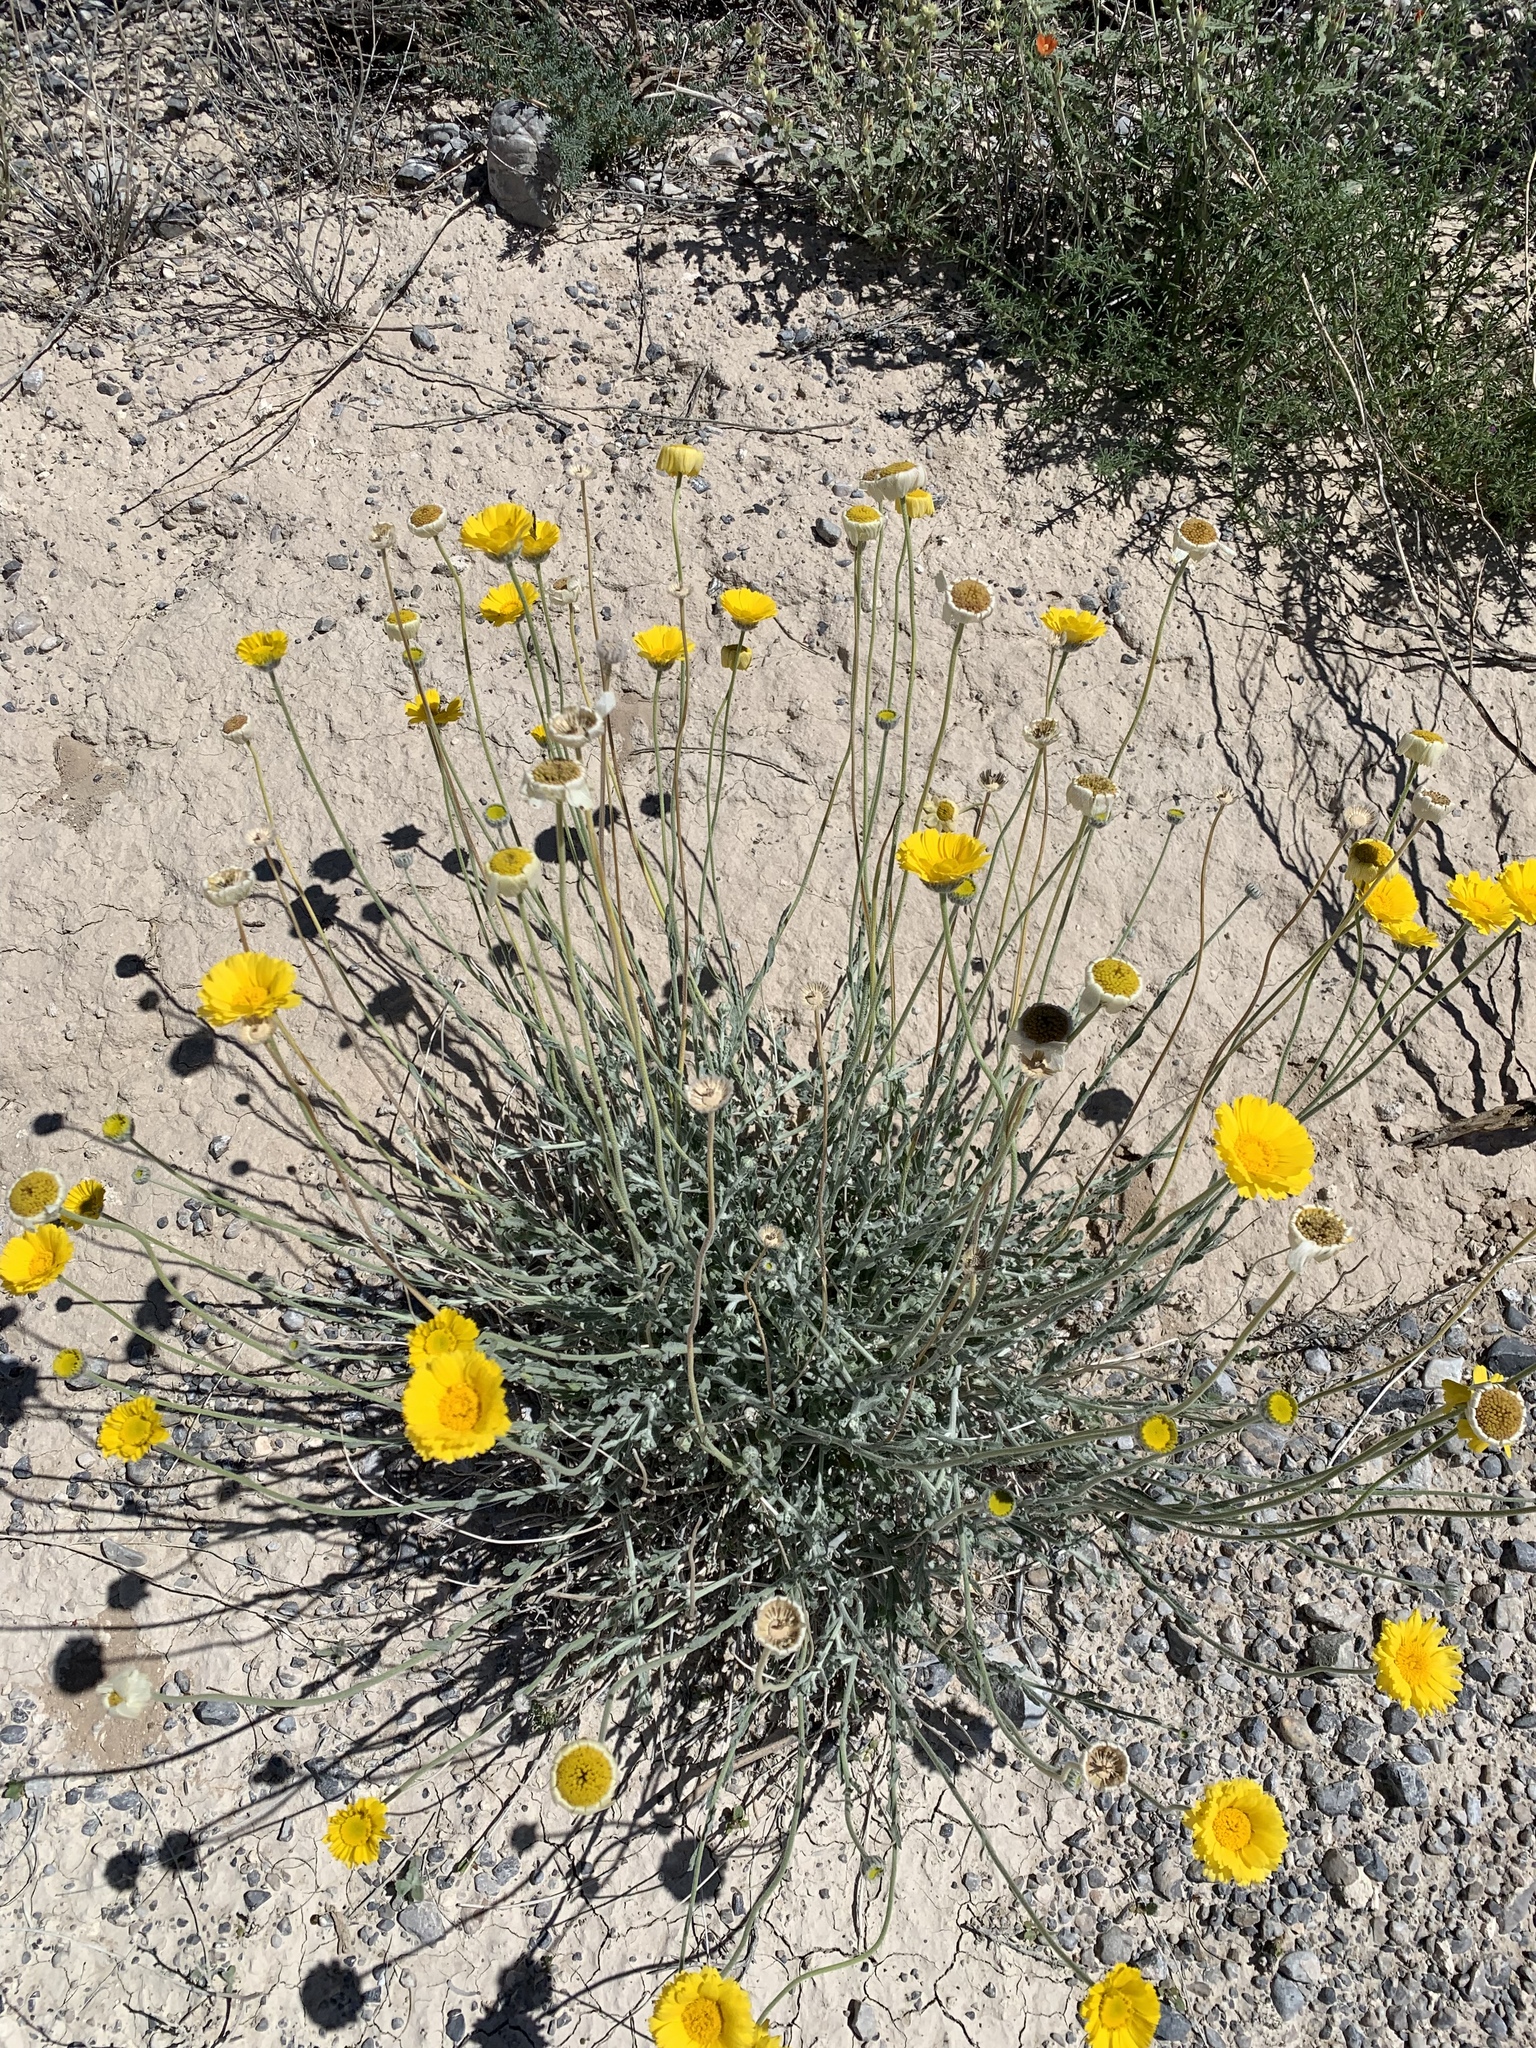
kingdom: Plantae
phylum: Tracheophyta
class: Magnoliopsida
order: Asterales
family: Asteraceae
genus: Baileya
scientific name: Baileya multiradiata
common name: Desert-marigold
